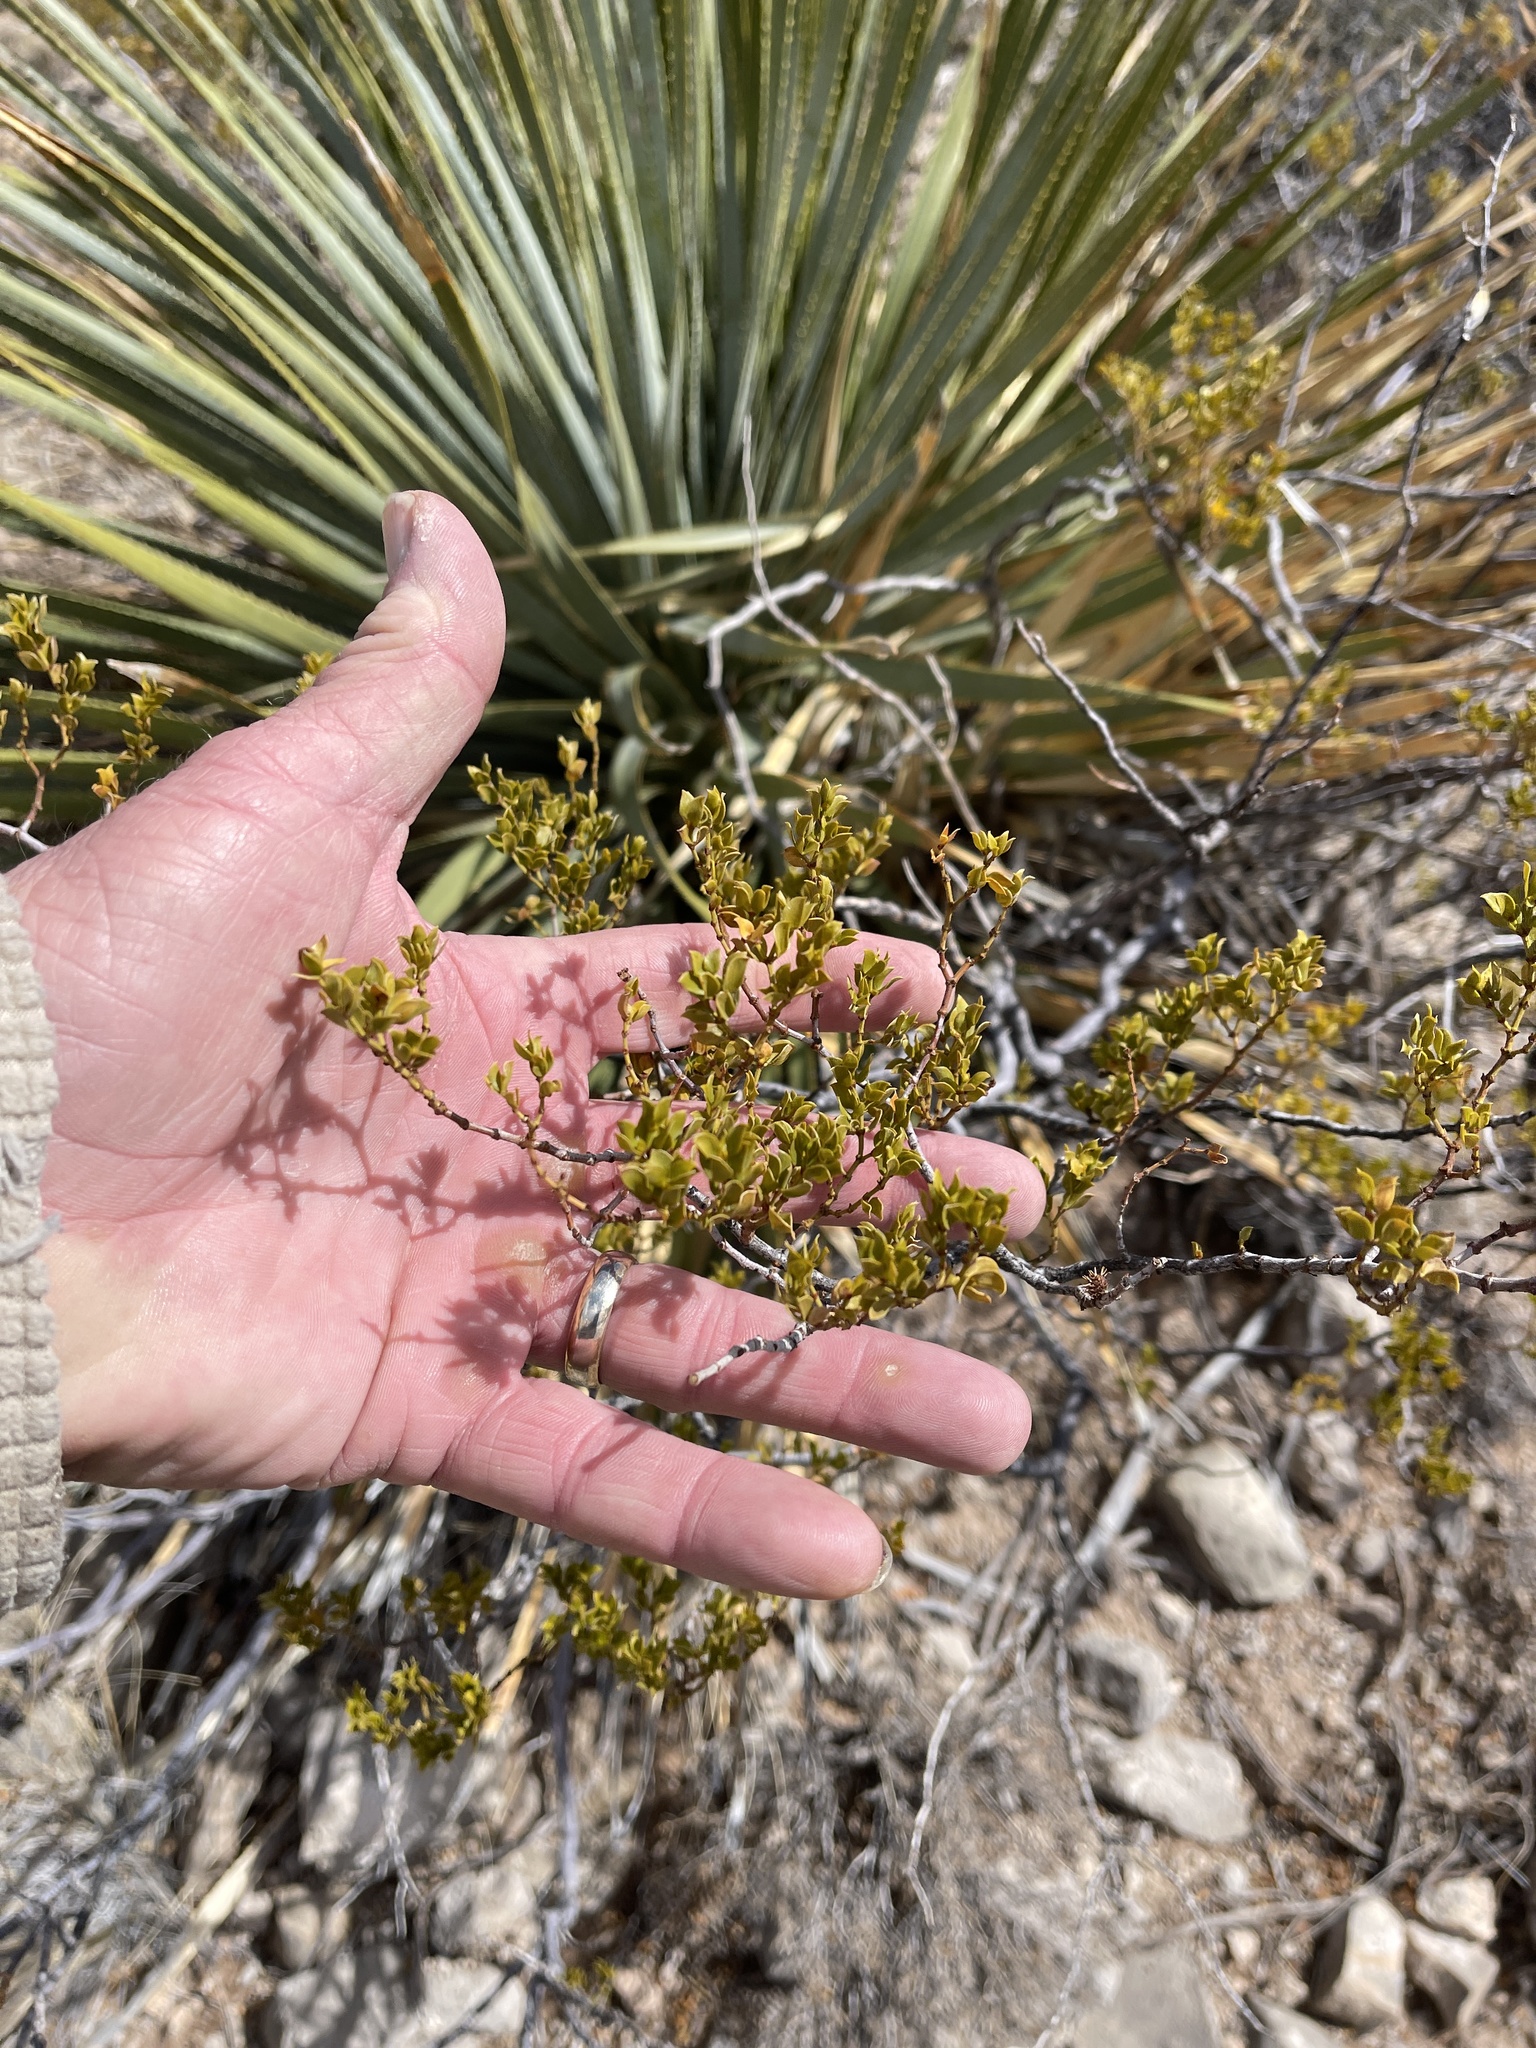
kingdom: Plantae
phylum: Tracheophyta
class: Magnoliopsida
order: Zygophyllales
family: Zygophyllaceae
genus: Larrea
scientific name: Larrea tridentata
